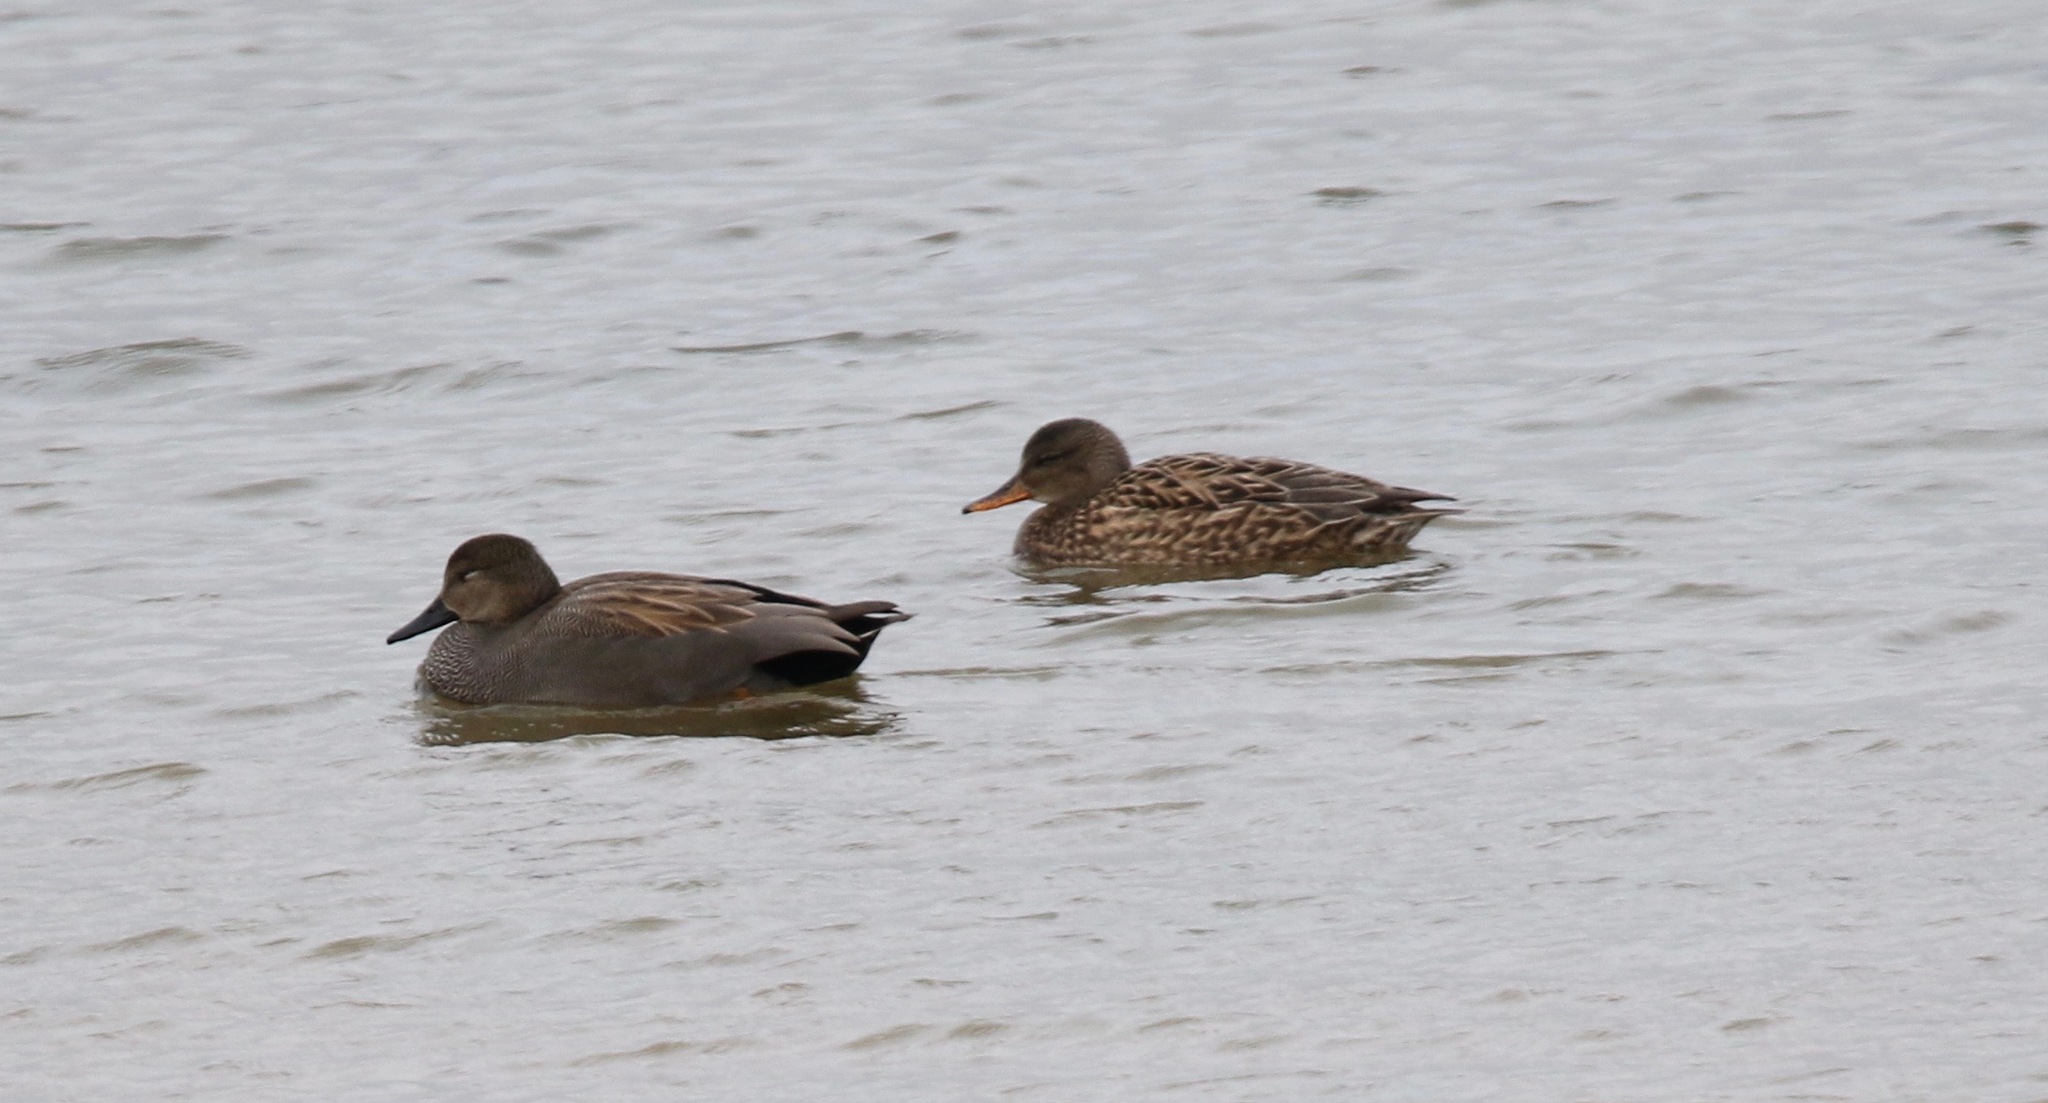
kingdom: Animalia
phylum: Chordata
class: Aves
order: Anseriformes
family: Anatidae
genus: Mareca
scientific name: Mareca strepera
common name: Gadwall
